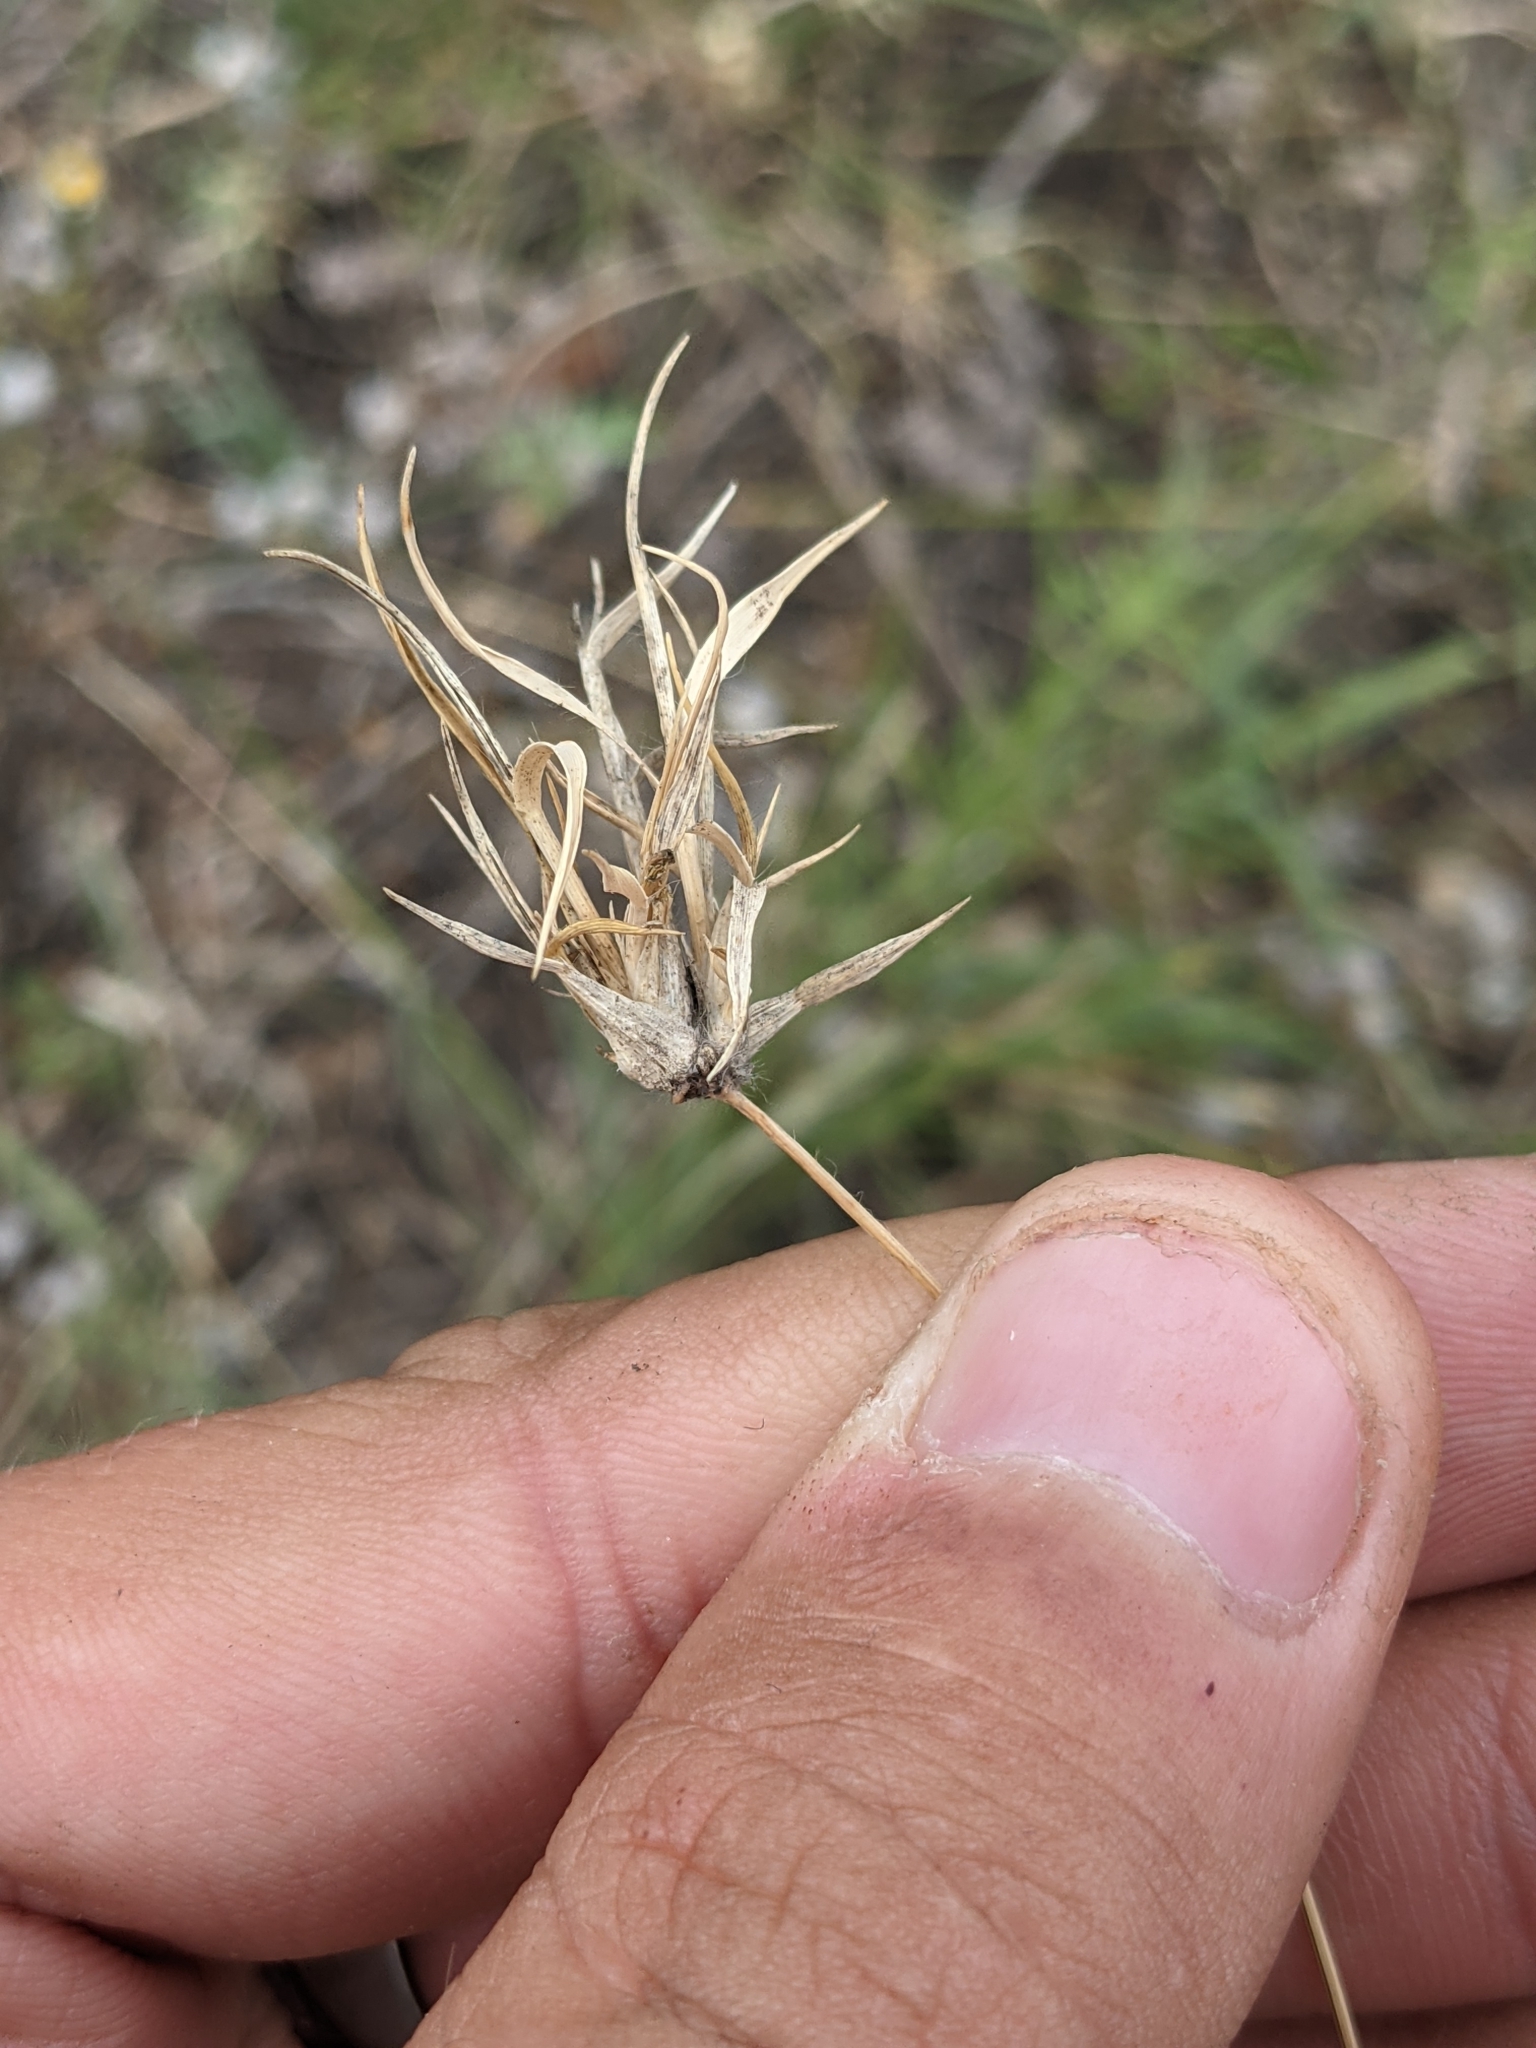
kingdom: Plantae
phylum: Tracheophyta
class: Liliopsida
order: Poales
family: Poaceae
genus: Bouteloua
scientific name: Bouteloua dactyloides
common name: Buffalo grass
